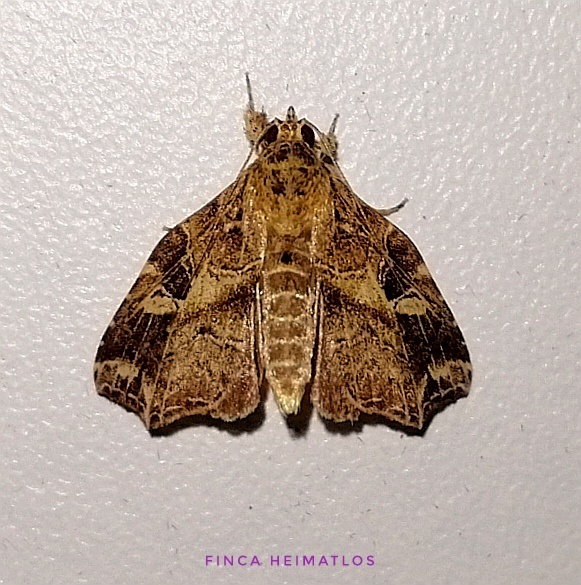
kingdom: Animalia
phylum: Arthropoda
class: Insecta
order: Lepidoptera
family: Noctuidae
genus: Callopistria
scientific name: Callopistria floridensis
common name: Florida fern moth
